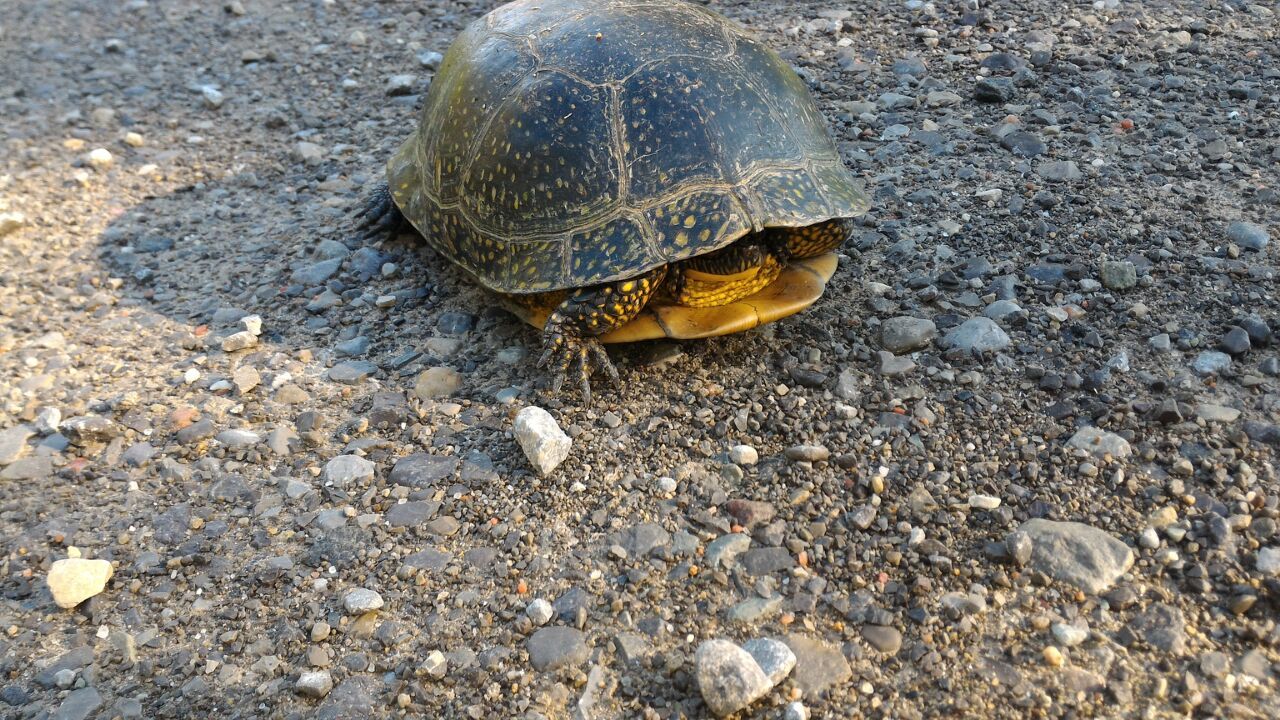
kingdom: Animalia
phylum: Chordata
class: Testudines
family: Emydidae
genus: Emys
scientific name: Emys blandingii
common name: Blanding's turtle
